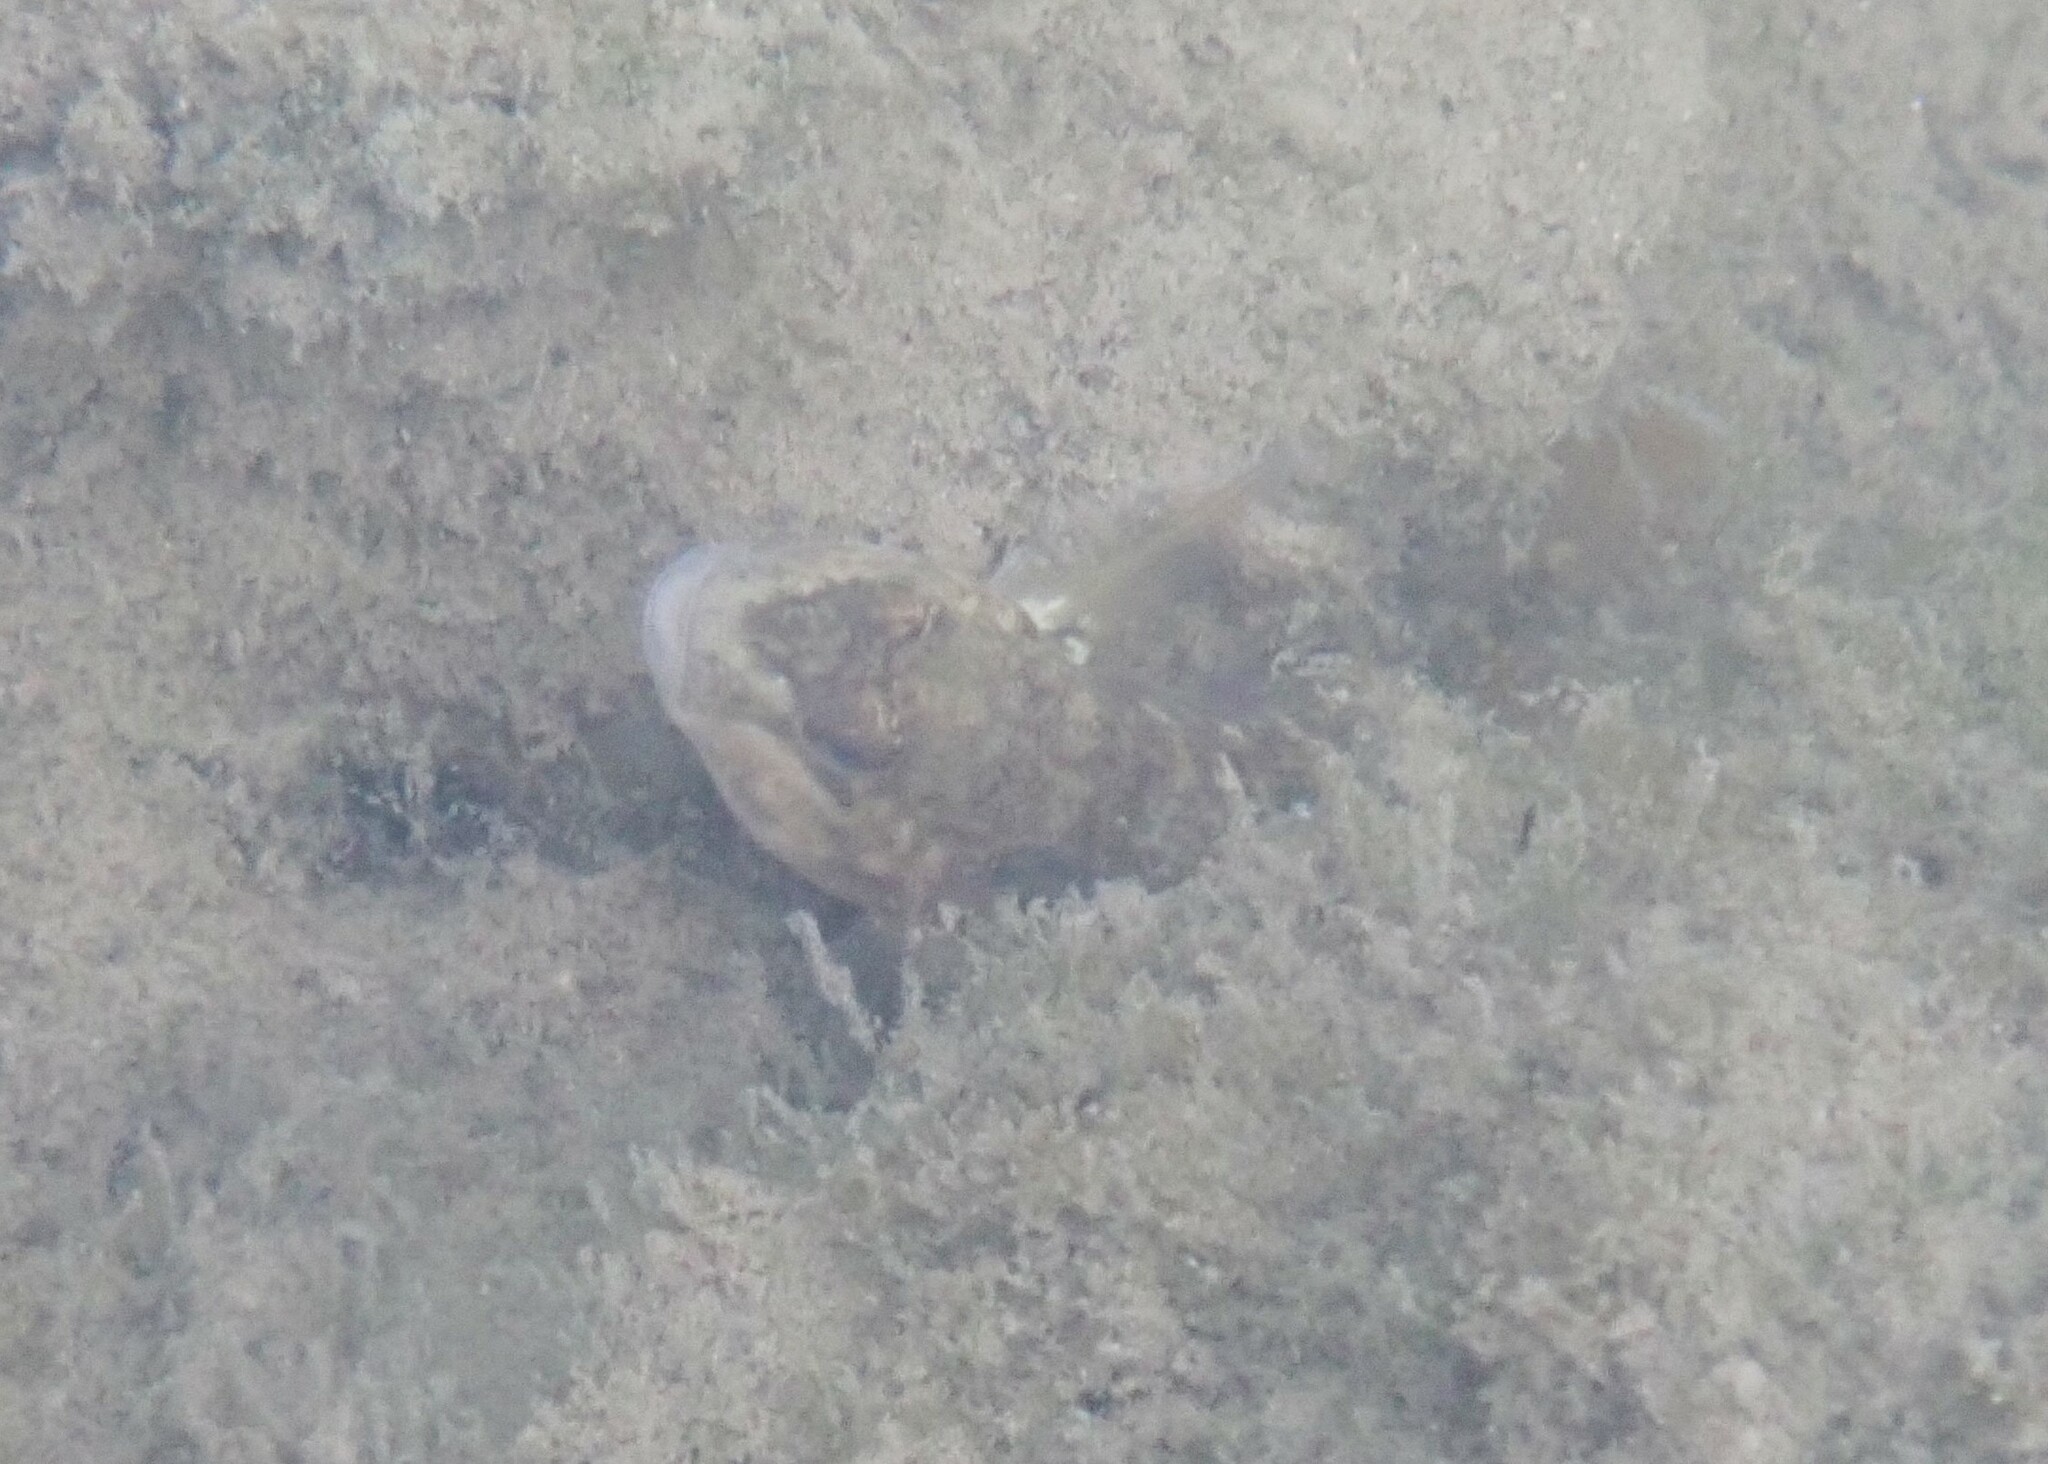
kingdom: Animalia
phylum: Chordata
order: Perciformes
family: Gobiidae
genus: Neogobius
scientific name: Neogobius melanostomus
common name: Round goby
